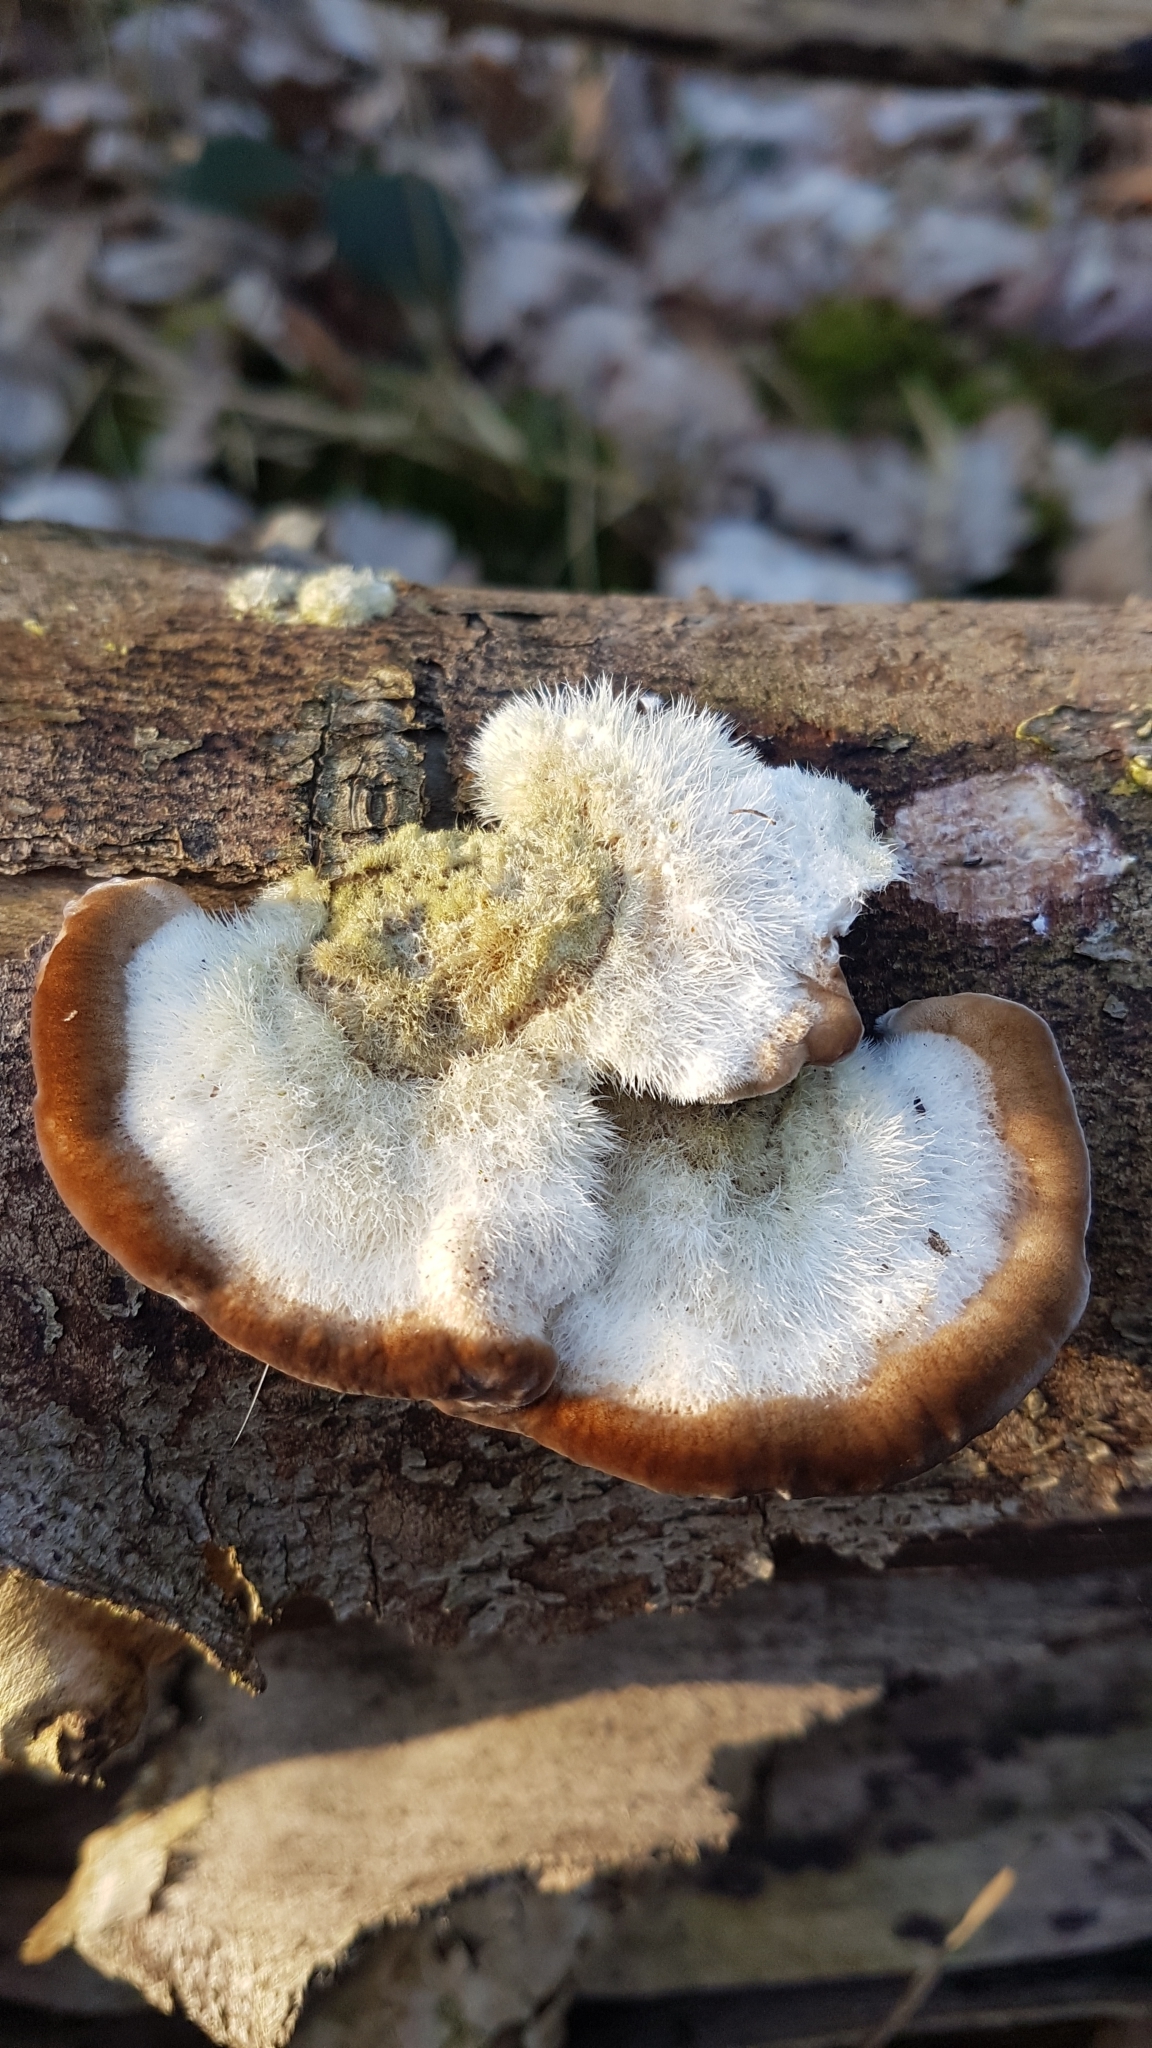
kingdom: Fungi
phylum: Basidiomycota
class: Agaricomycetes
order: Polyporales
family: Polyporaceae
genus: Trametes
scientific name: Trametes hirsuta
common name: Hairy bracket
